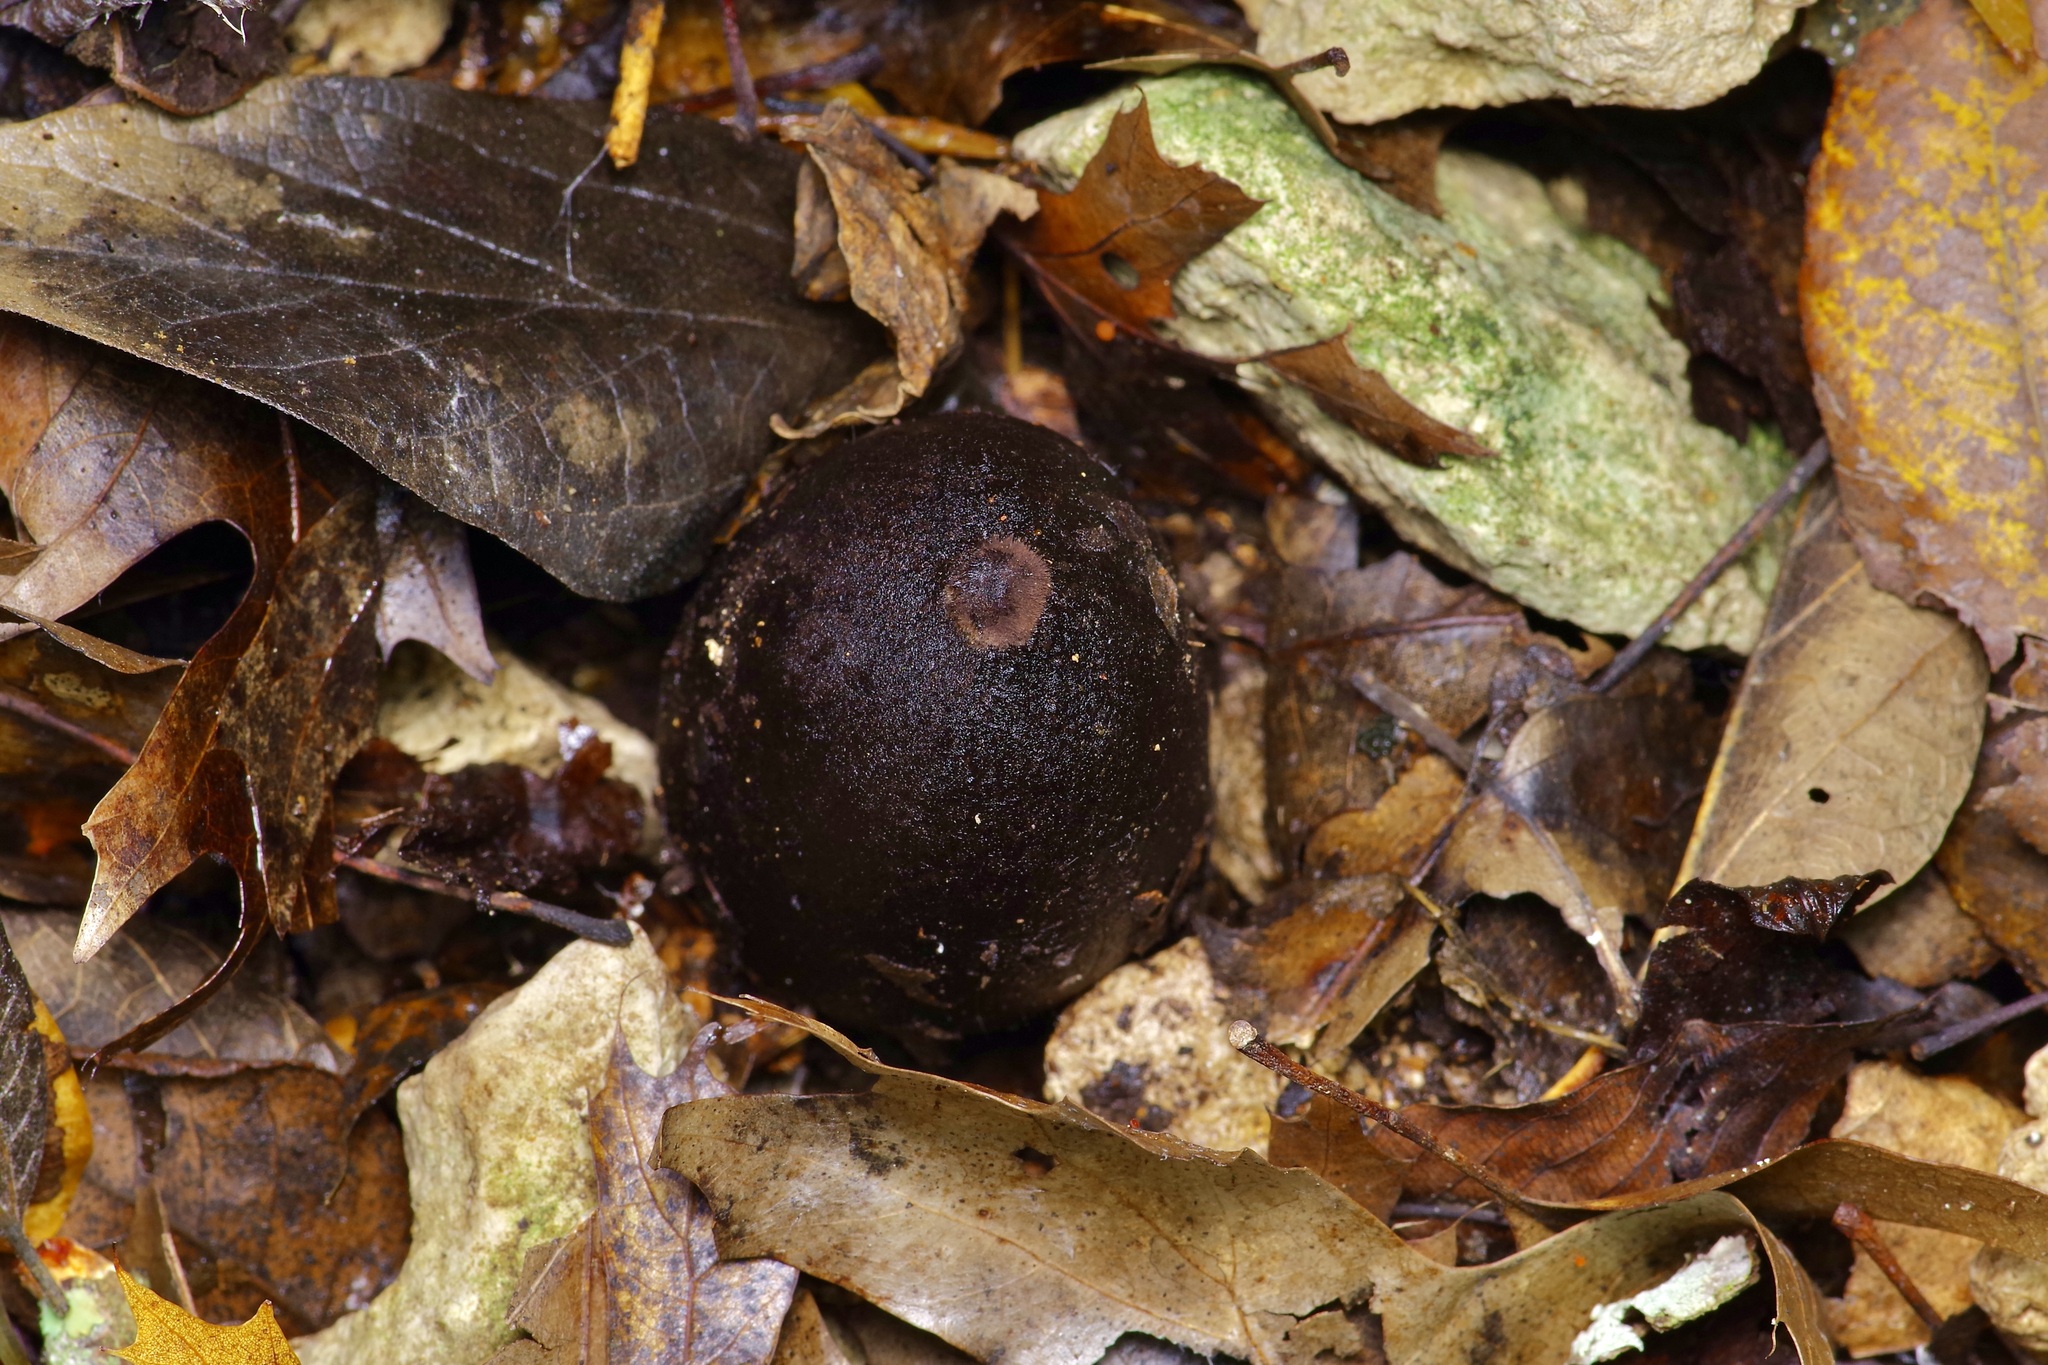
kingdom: Fungi
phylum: Ascomycota
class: Pezizomycetes
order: Pezizales
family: Chorioactidaceae
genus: Chorioactis
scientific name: Chorioactis geaster
